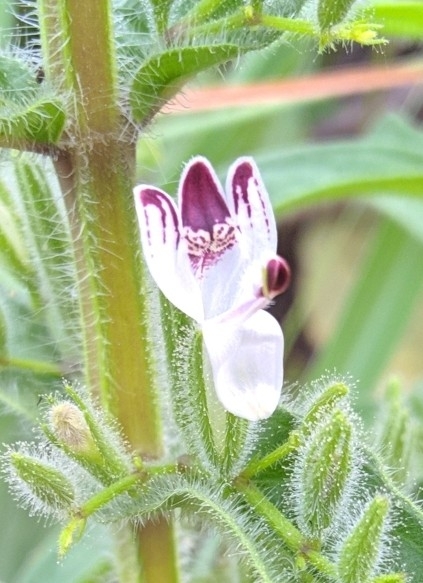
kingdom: Plantae
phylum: Tracheophyta
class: Magnoliopsida
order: Lamiales
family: Acanthaceae
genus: Andrographis
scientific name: Andrographis echioides
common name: False waterwillow
